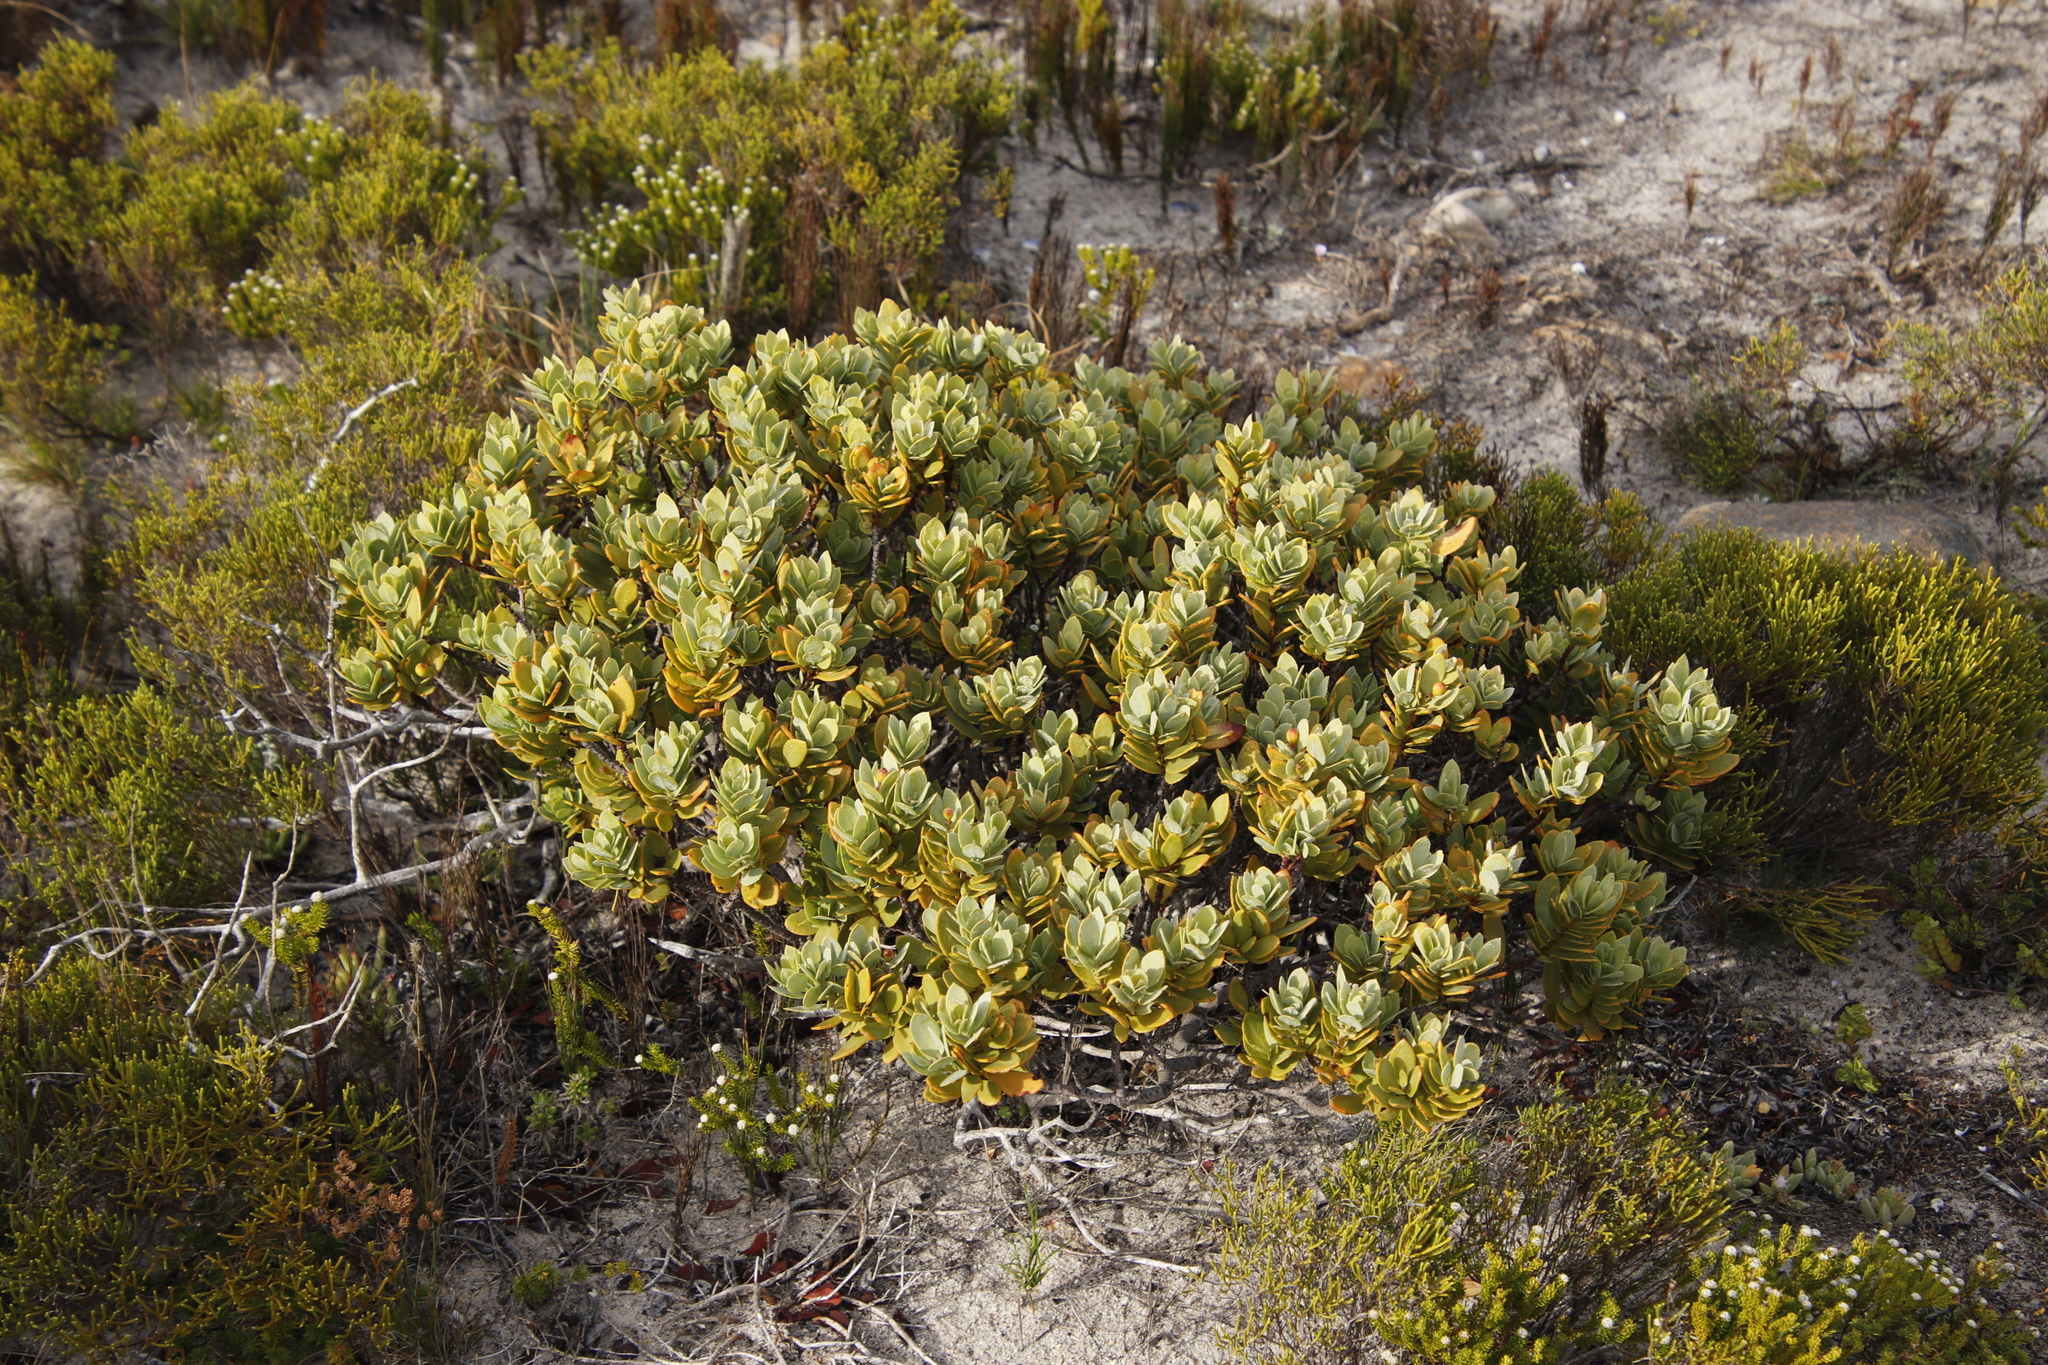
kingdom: Plantae
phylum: Tracheophyta
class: Magnoliopsida
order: Santalales
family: Santalaceae
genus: Osyris
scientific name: Osyris compressa
